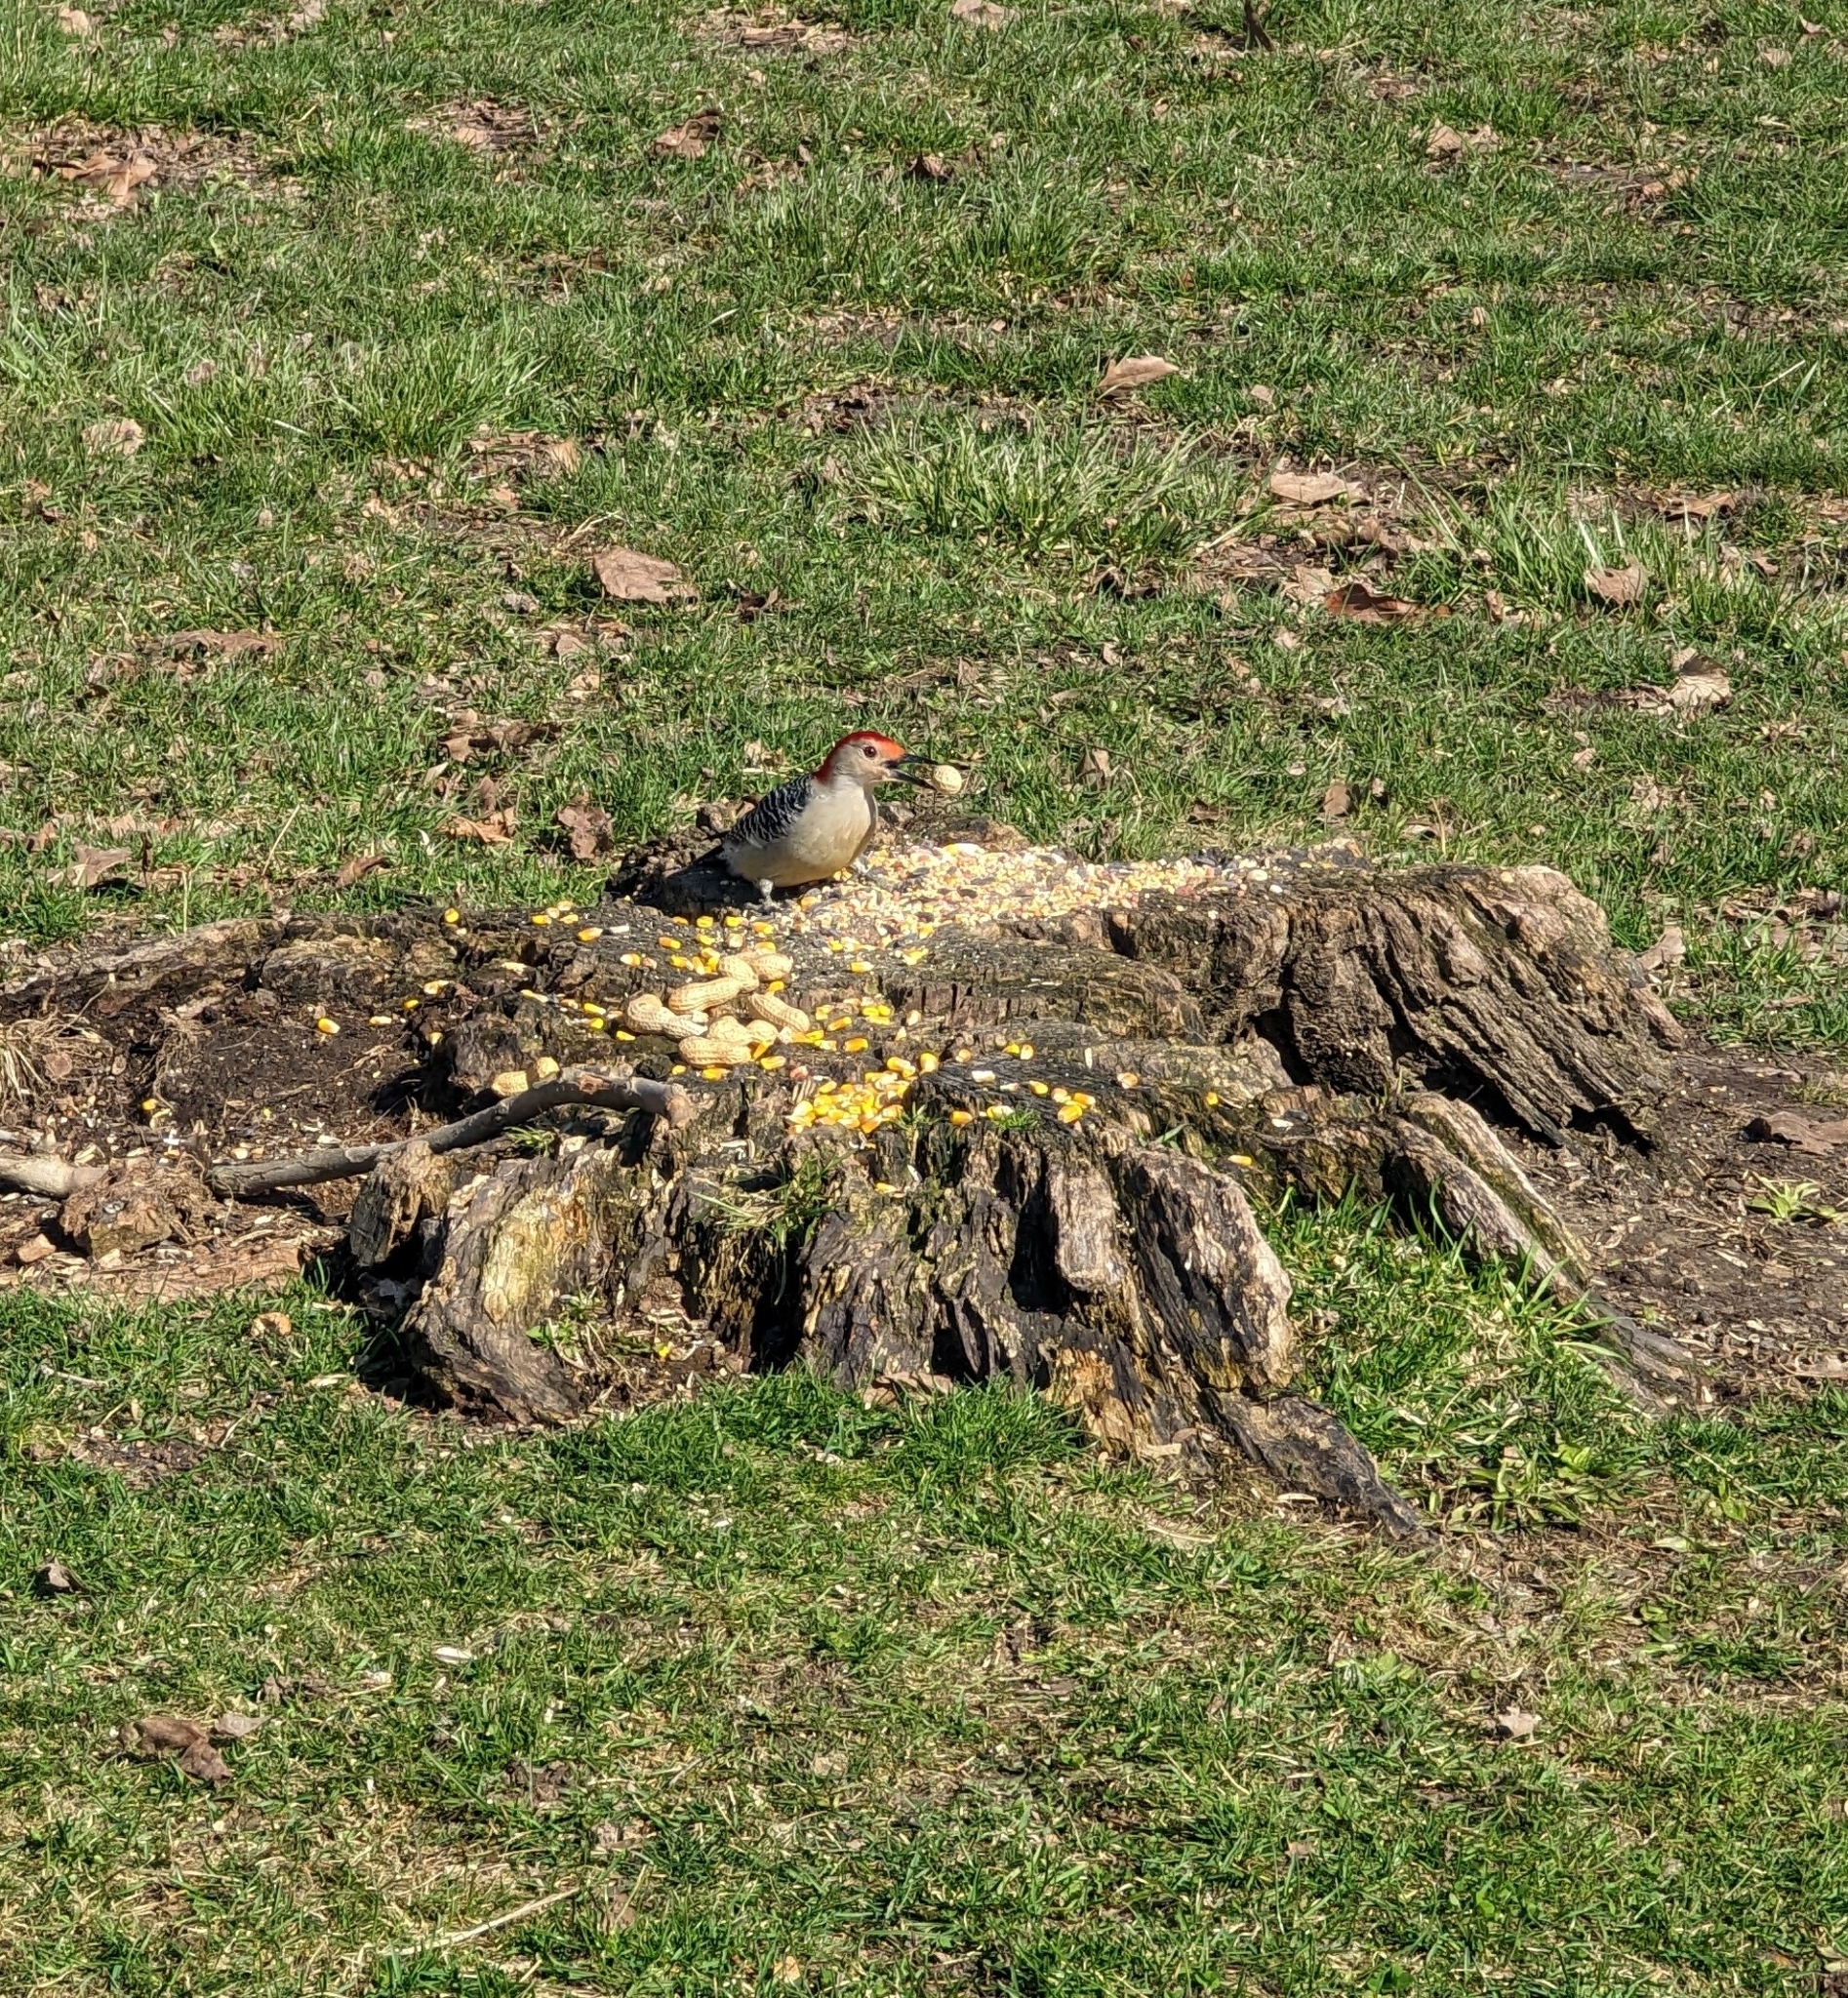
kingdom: Animalia
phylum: Chordata
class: Aves
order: Piciformes
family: Picidae
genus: Melanerpes
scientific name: Melanerpes carolinus
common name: Red-bellied woodpecker
